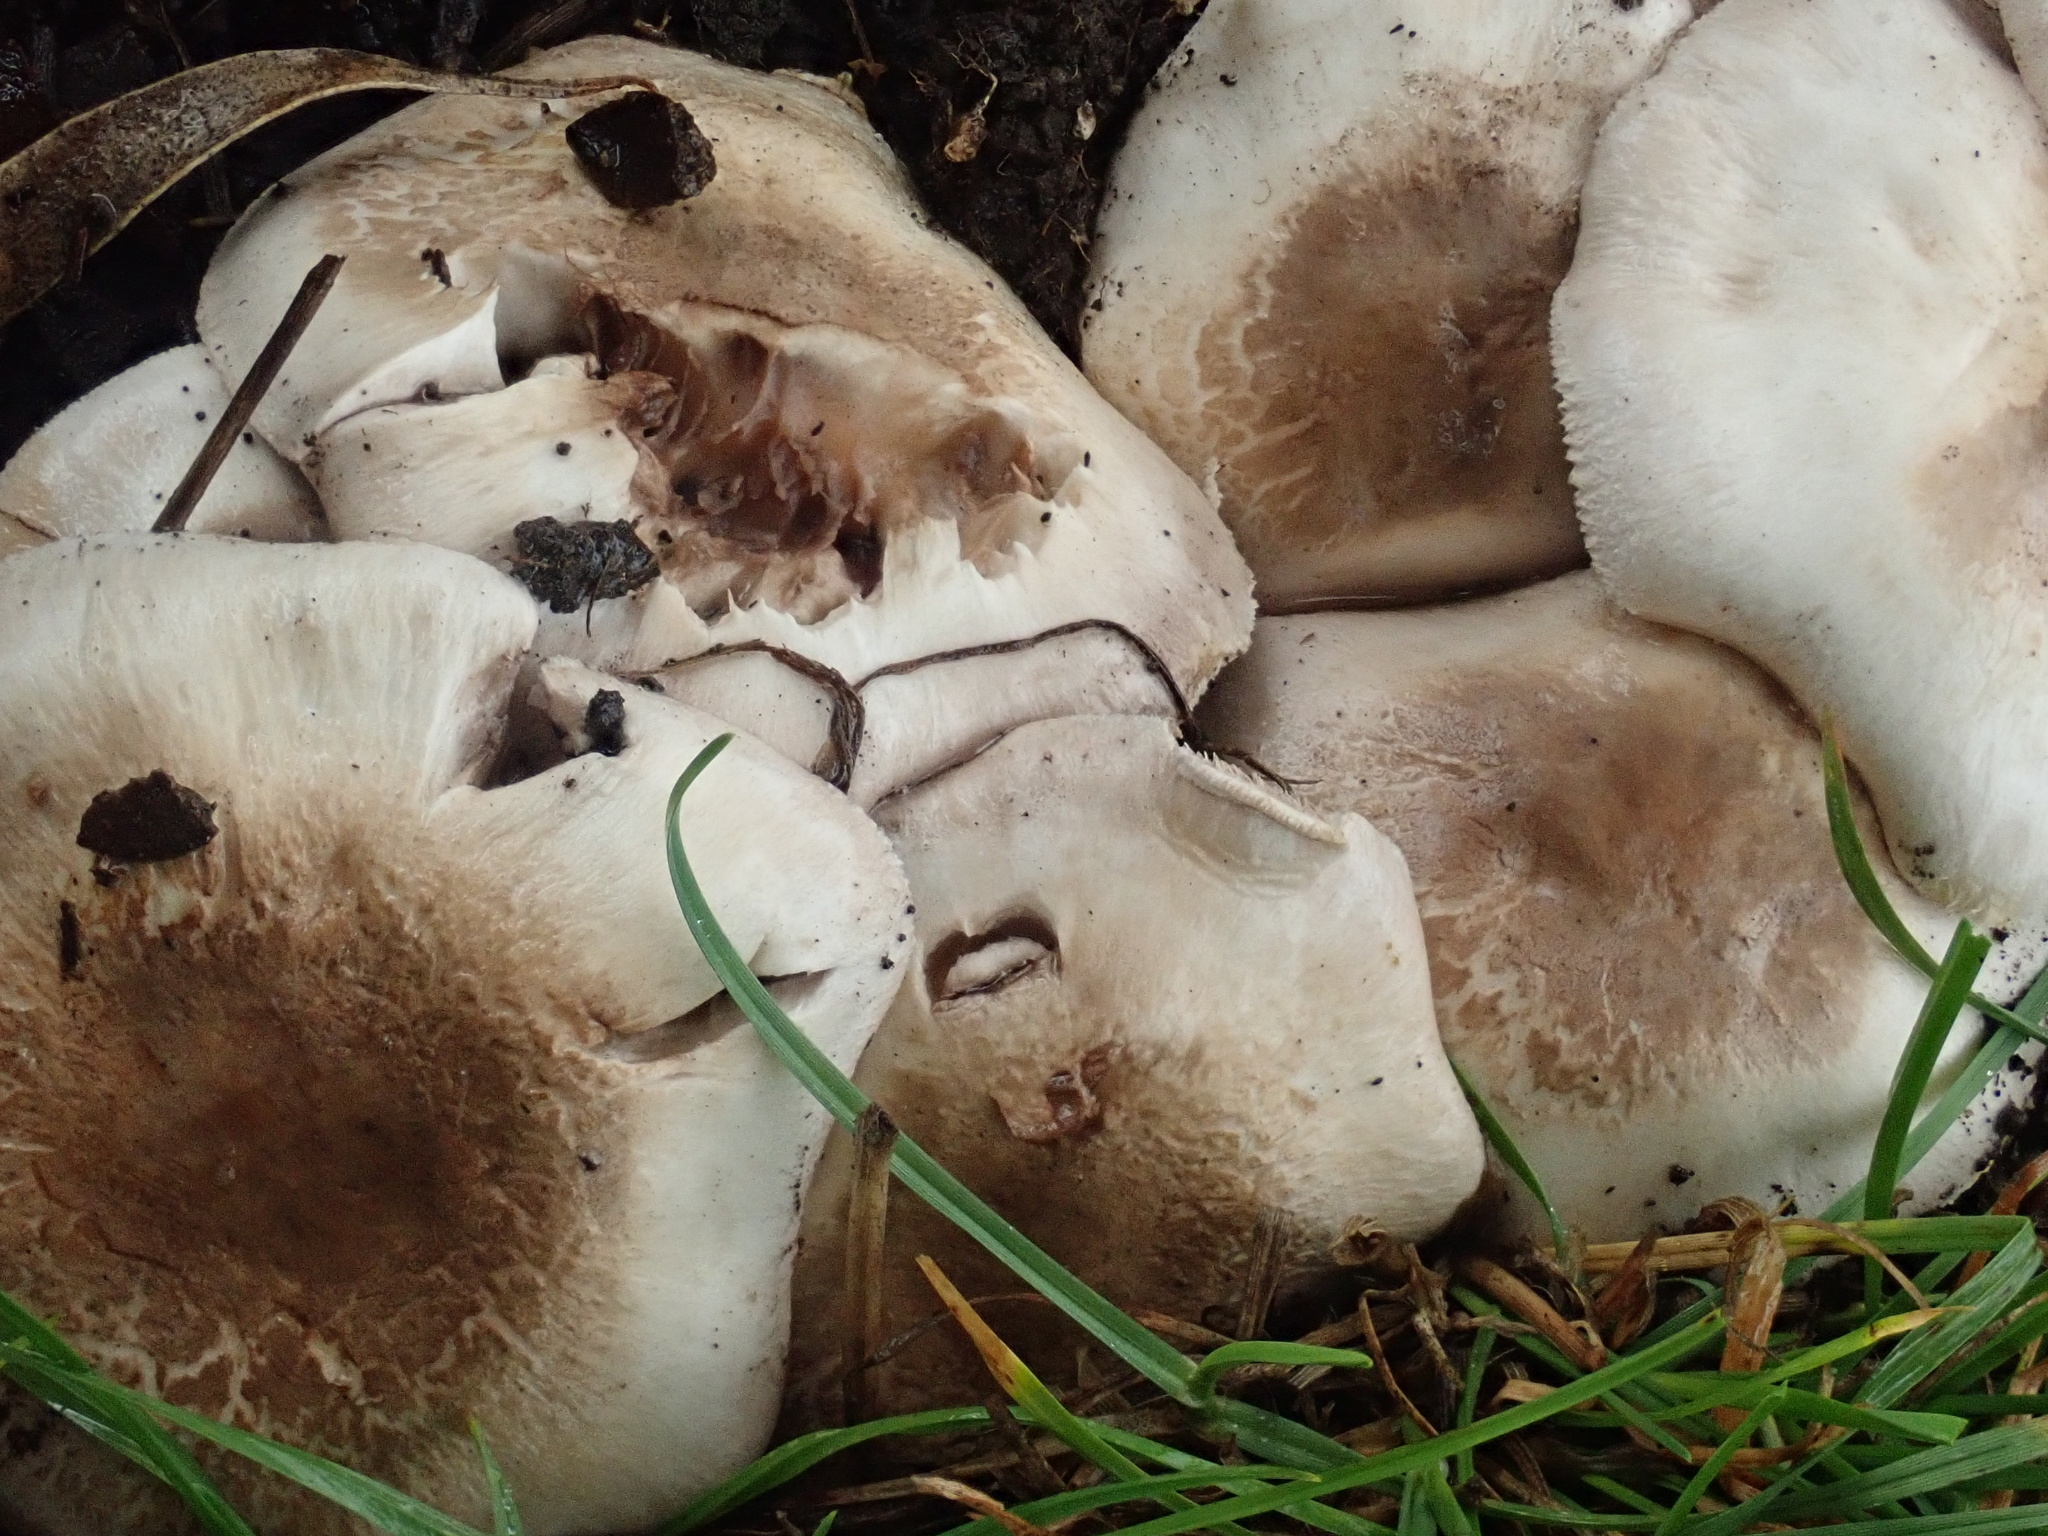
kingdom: Fungi
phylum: Basidiomycota
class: Agaricomycetes
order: Agaricales
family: Agaricaceae
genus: Agaricus
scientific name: Agaricus xanthodermus
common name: Yellow stainer
